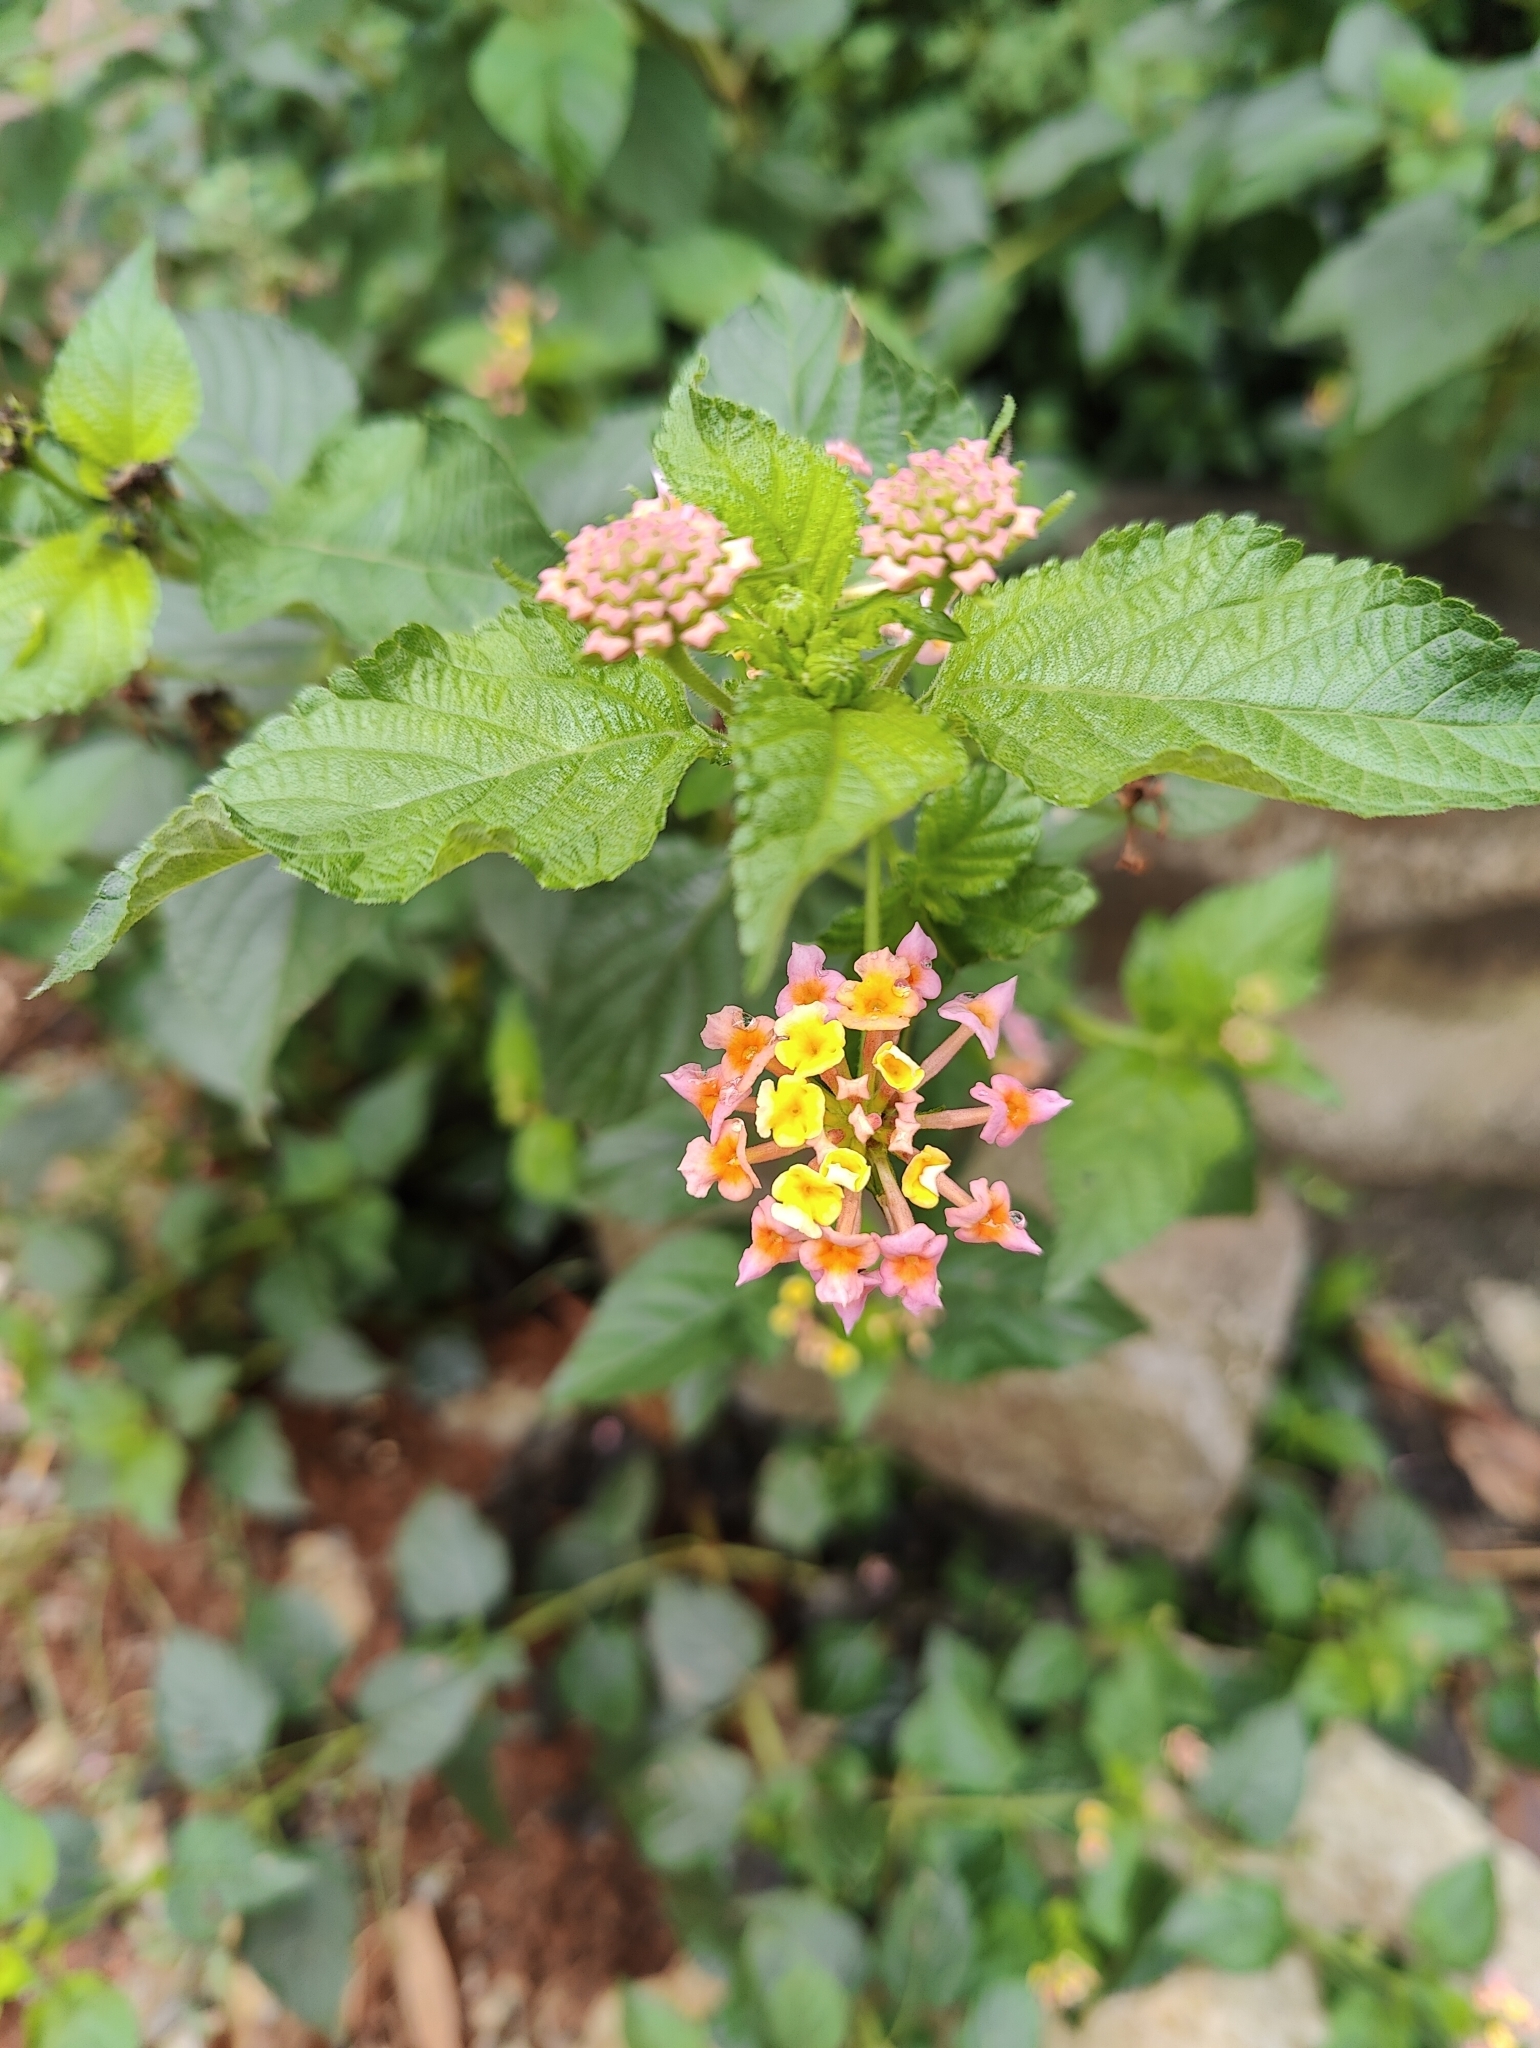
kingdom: Plantae
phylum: Tracheophyta
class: Magnoliopsida
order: Lamiales
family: Verbenaceae
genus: Lantana
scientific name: Lantana camara
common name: Lantana
